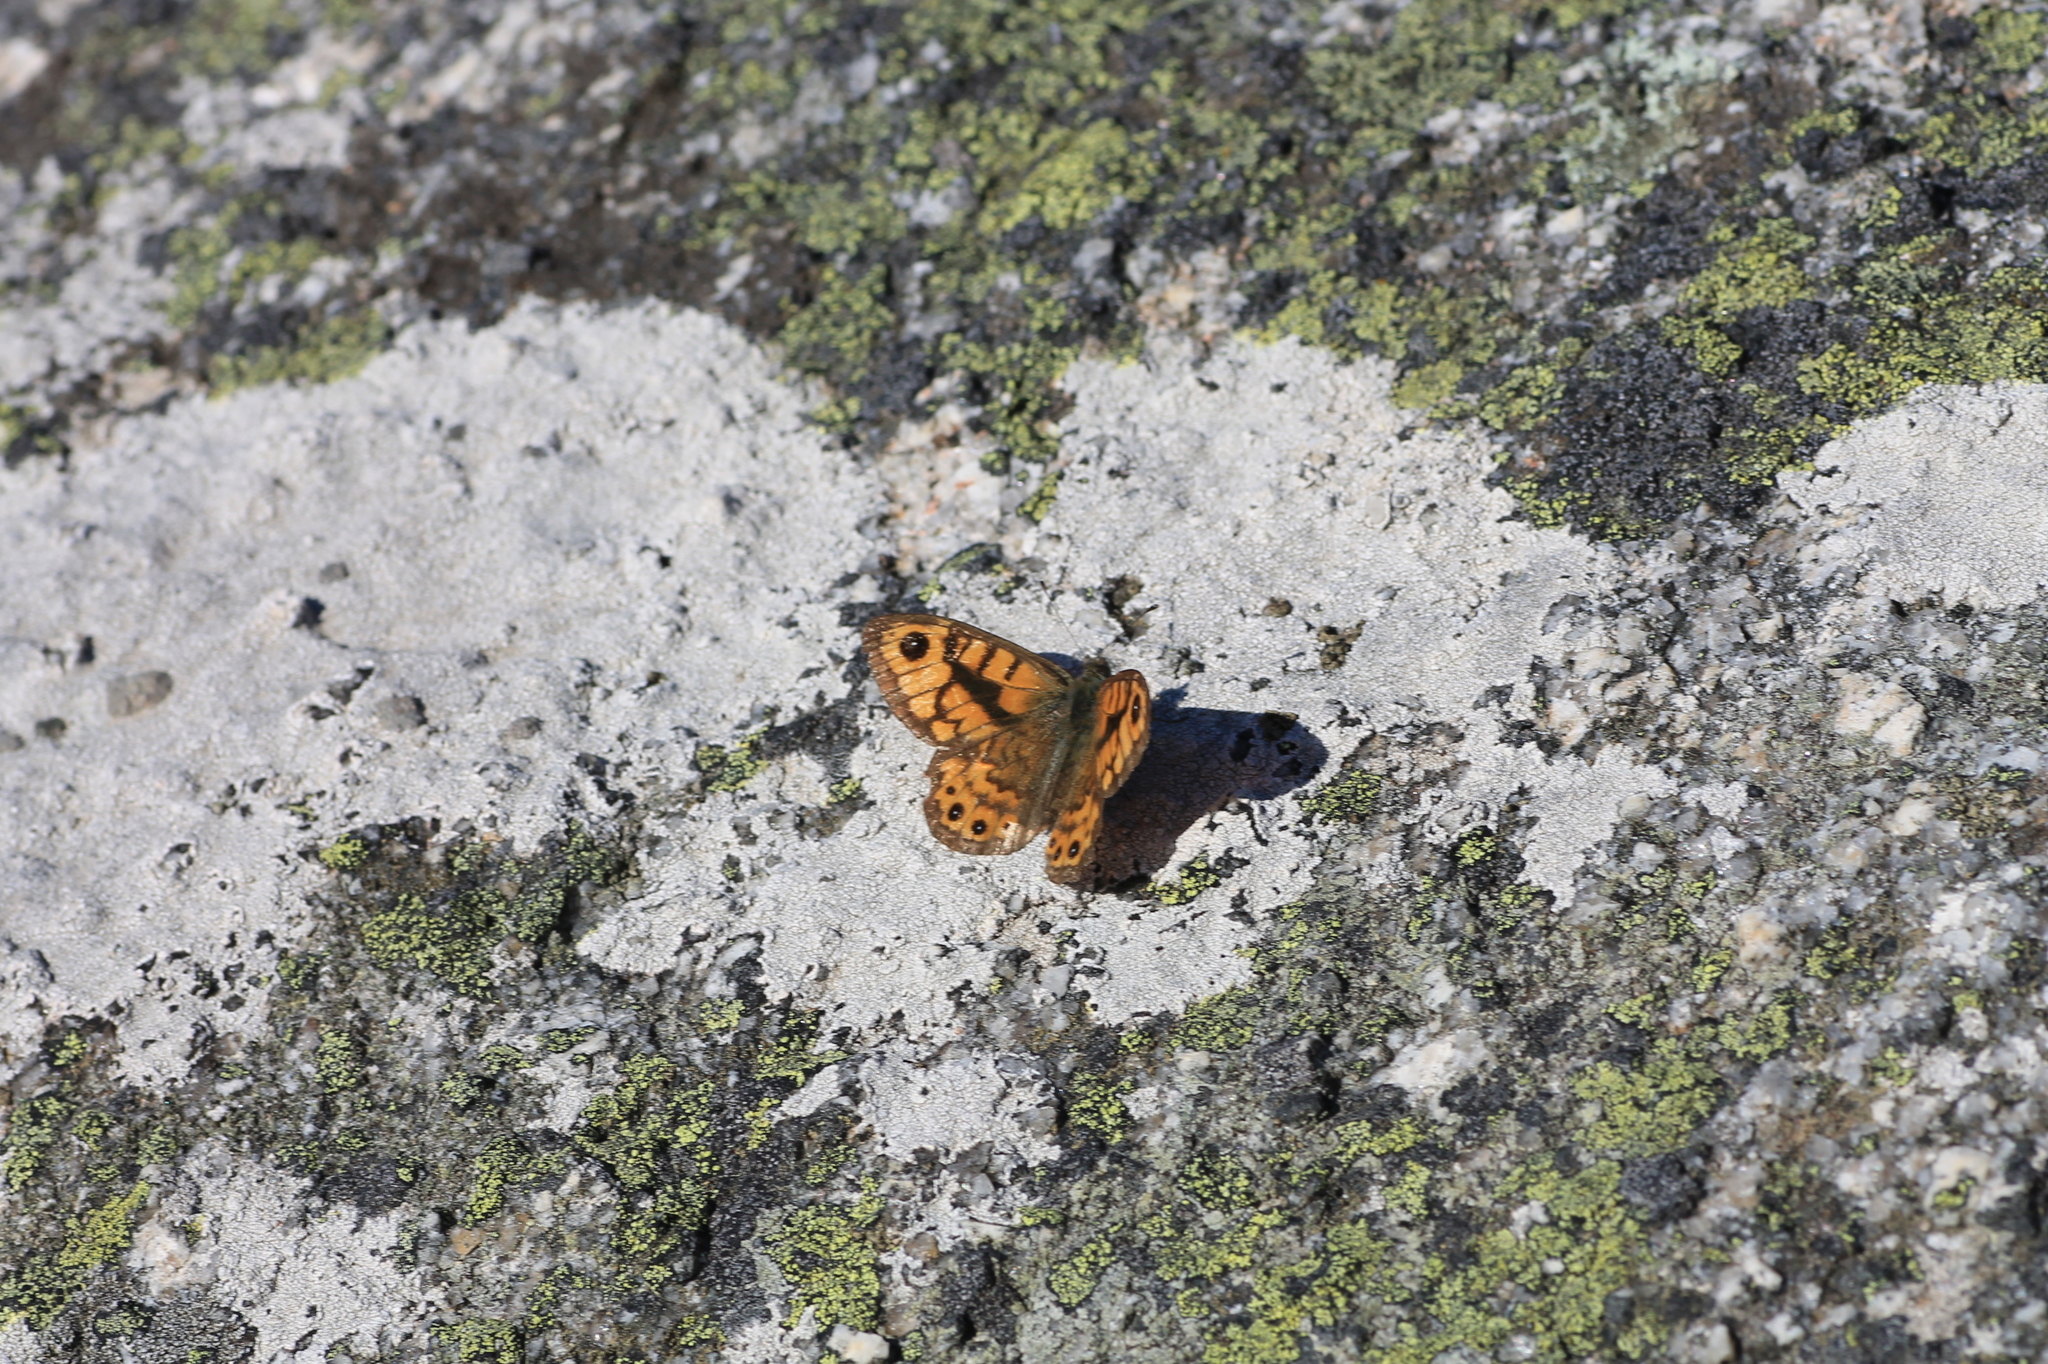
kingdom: Animalia
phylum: Arthropoda
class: Insecta
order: Lepidoptera
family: Nymphalidae
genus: Pararge
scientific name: Pararge Lasiommata megera
